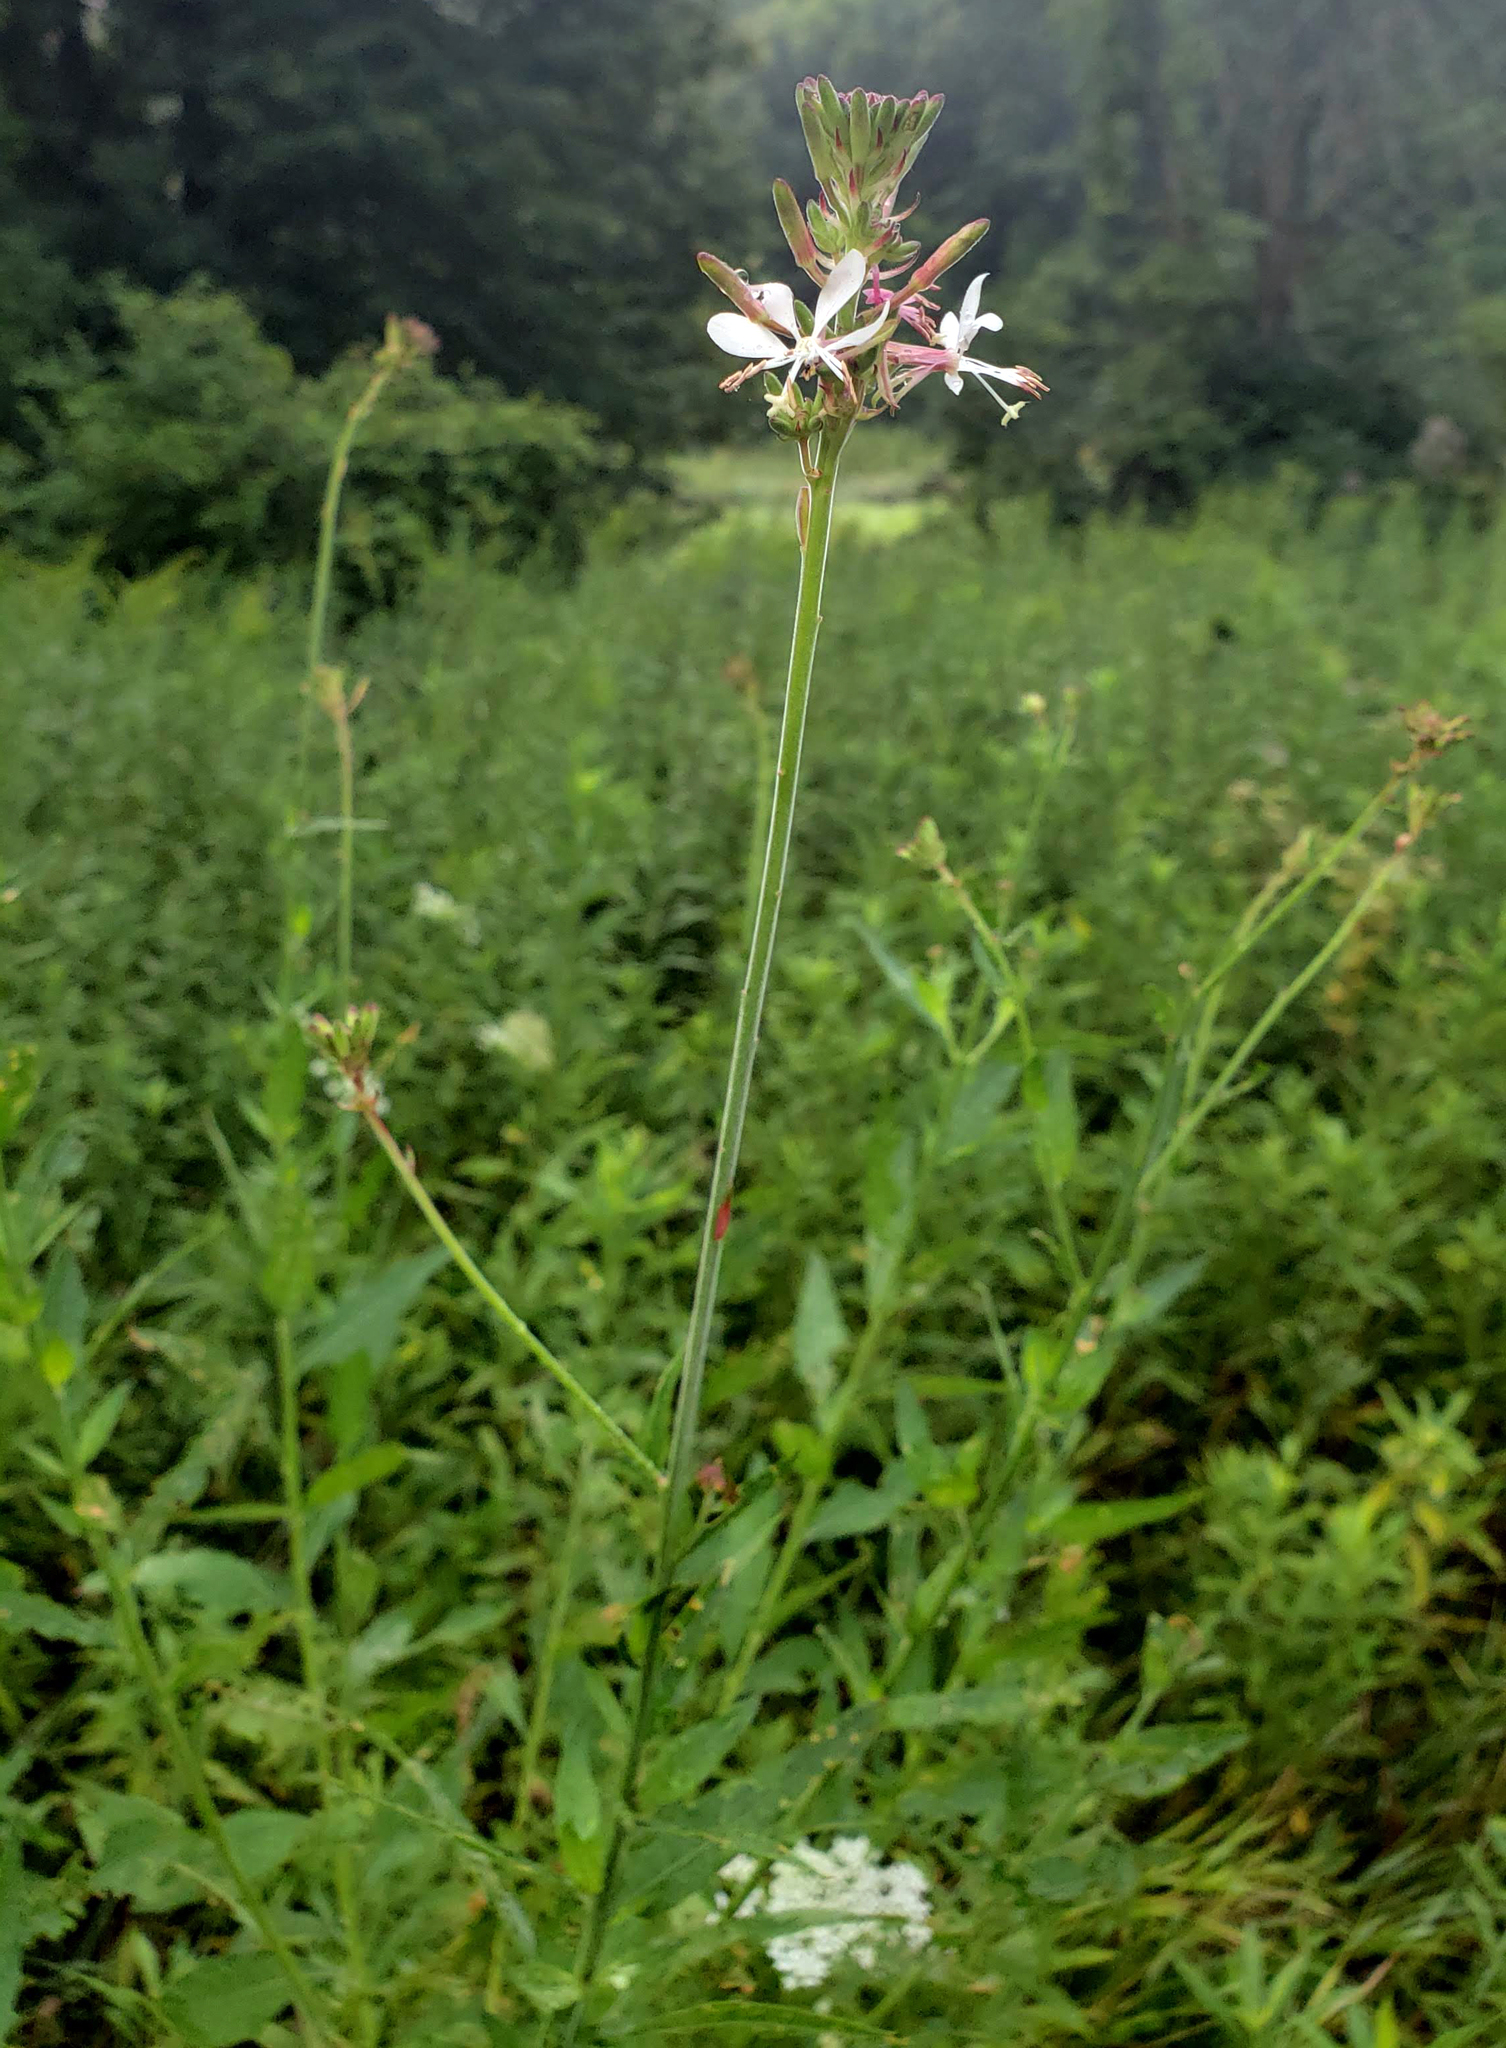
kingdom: Plantae
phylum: Tracheophyta
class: Magnoliopsida
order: Myrtales
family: Onagraceae
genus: Oenothera
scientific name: Oenothera gaura
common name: Biennial beeblossom
